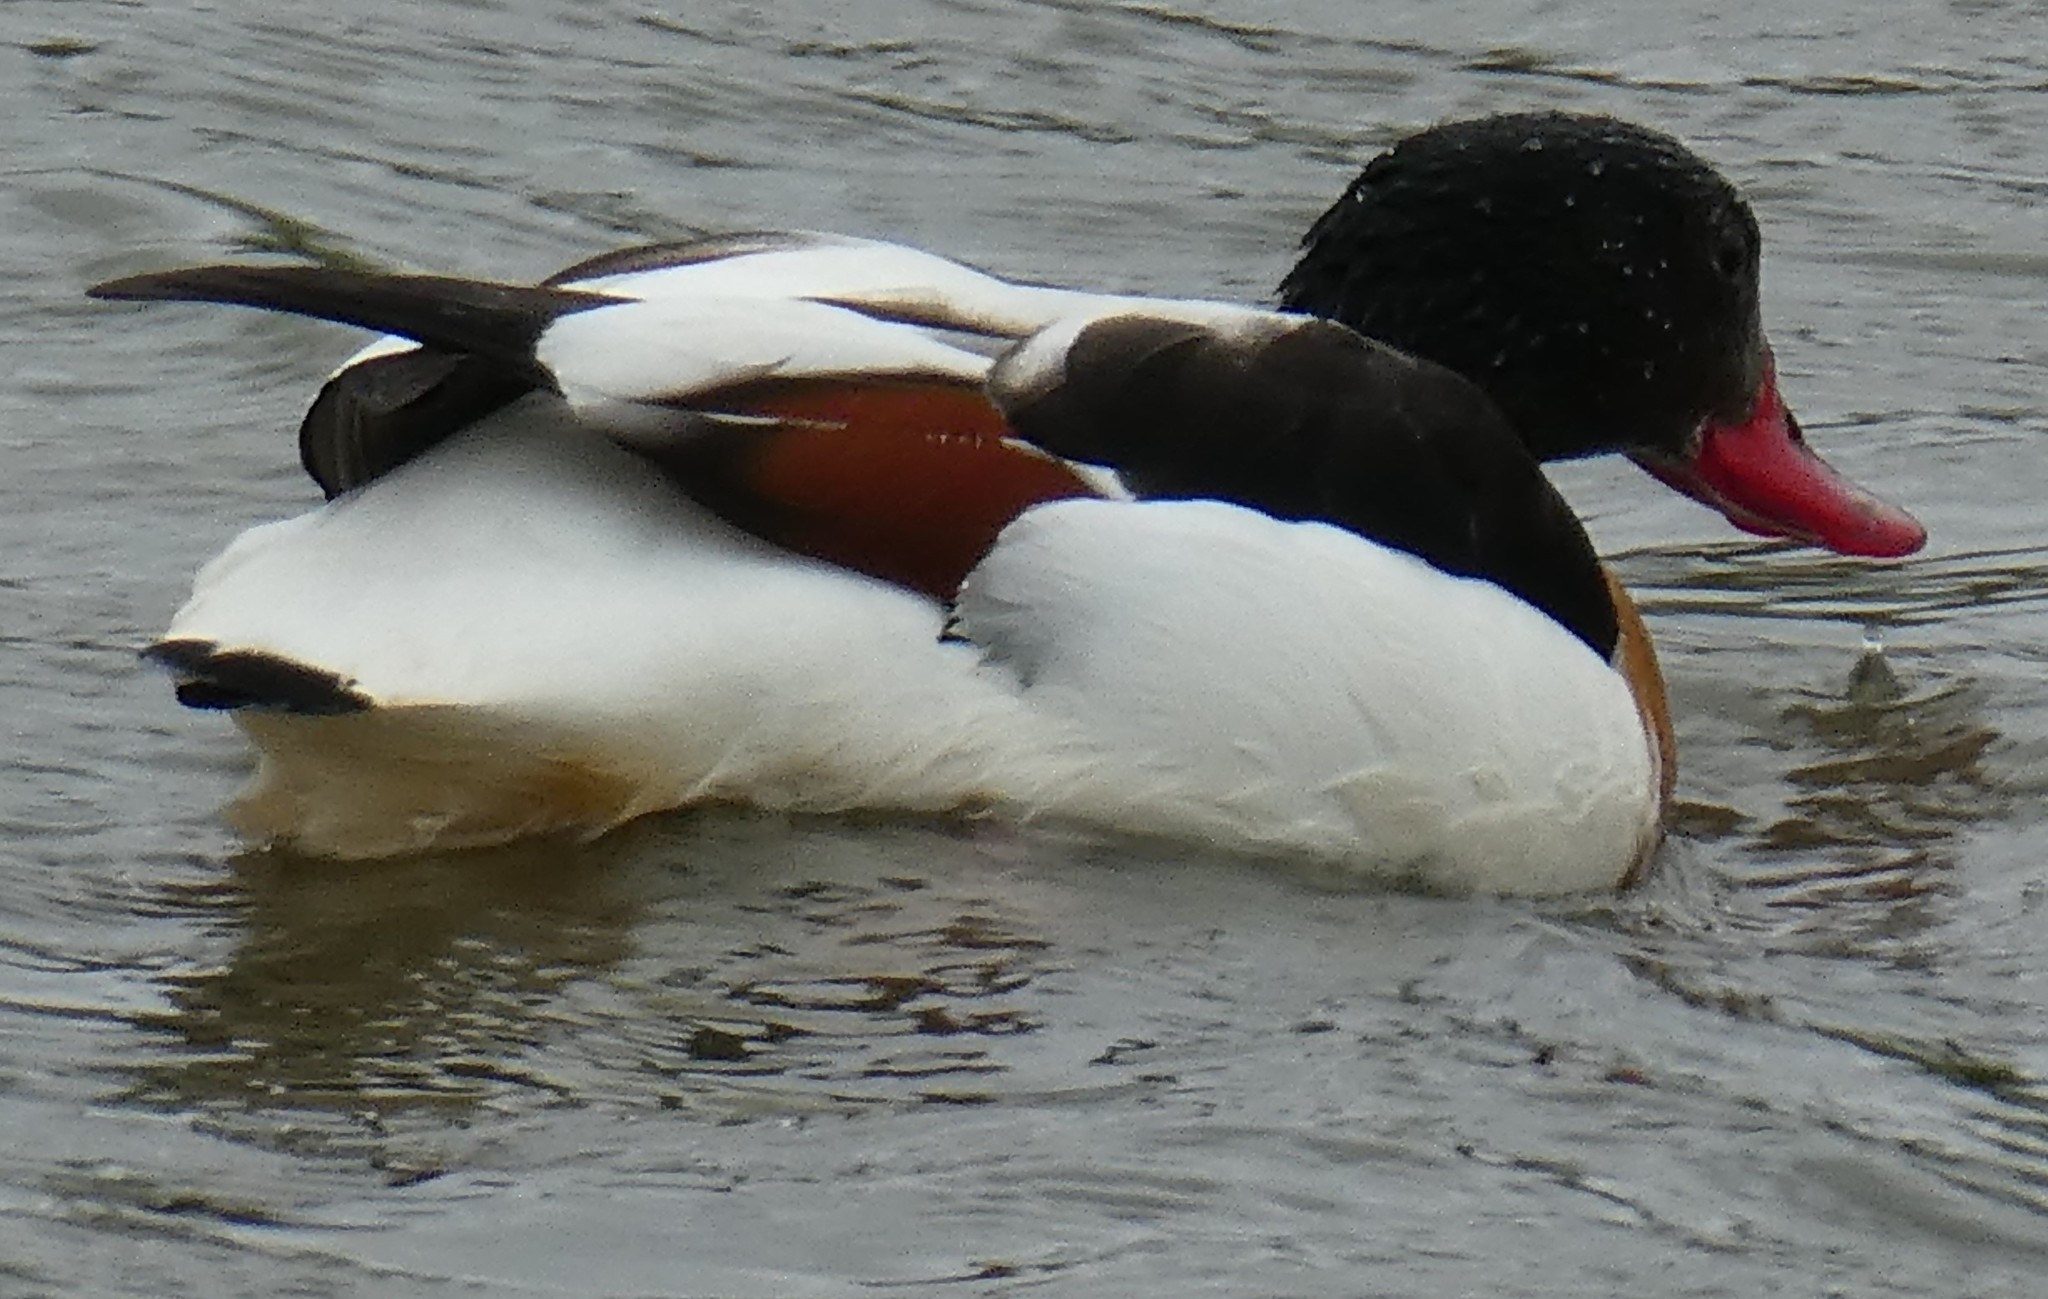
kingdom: Animalia
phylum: Chordata
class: Aves
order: Anseriformes
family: Anatidae
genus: Tadorna
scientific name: Tadorna tadorna
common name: Common shelduck
